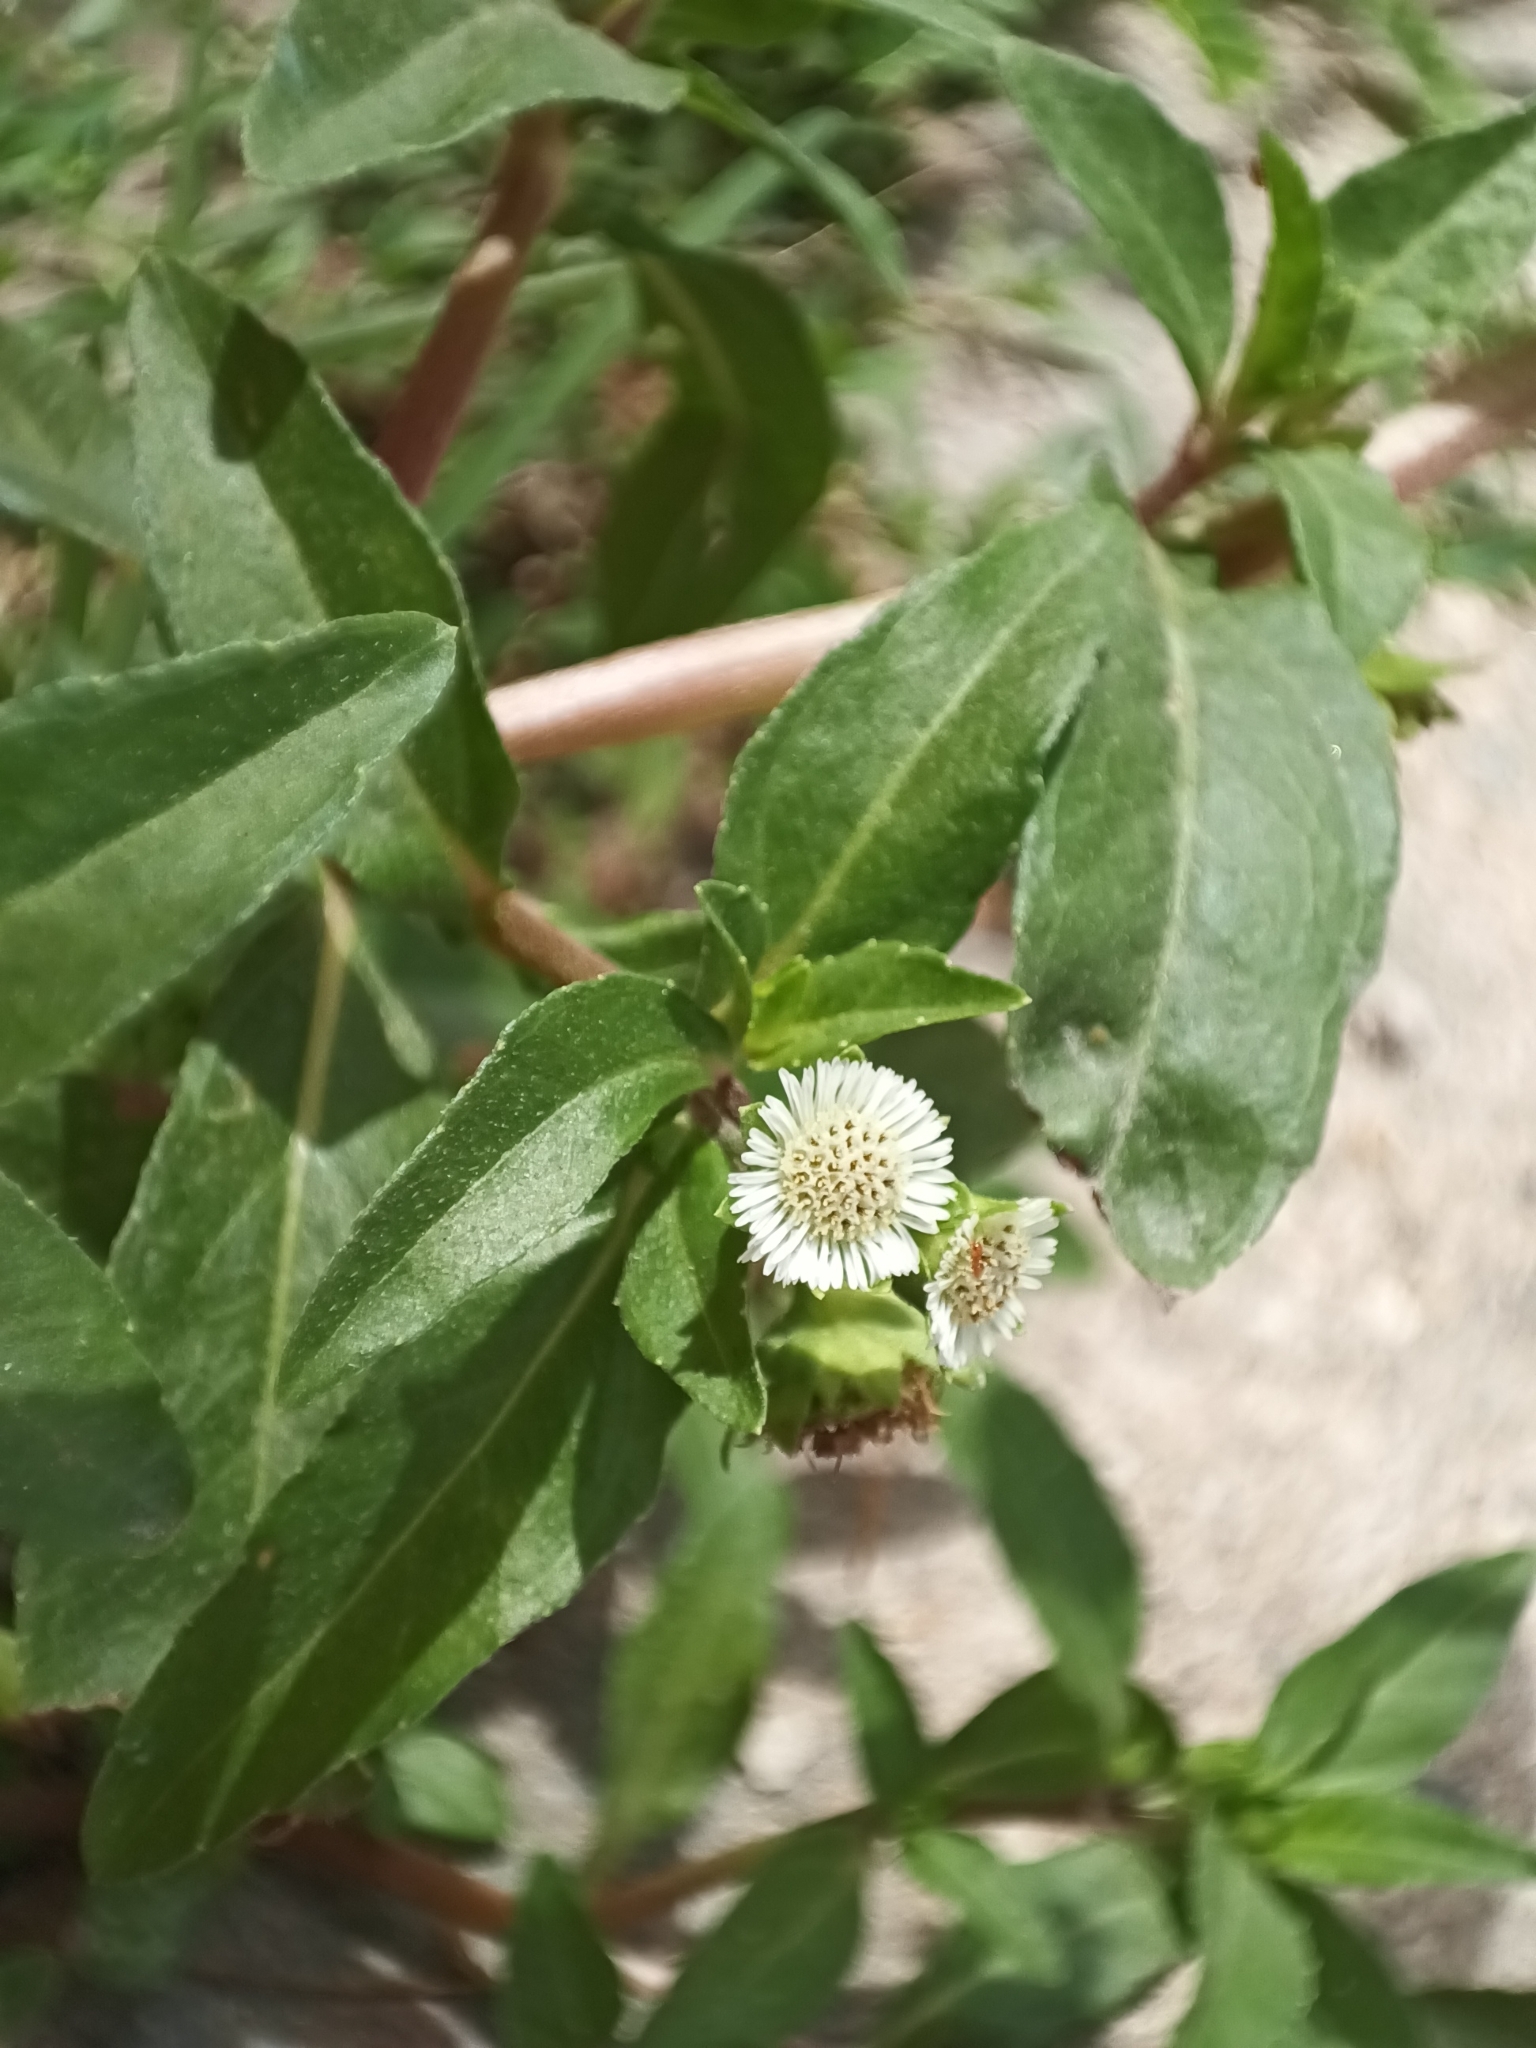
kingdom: Plantae
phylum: Tracheophyta
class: Magnoliopsida
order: Asterales
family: Asteraceae
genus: Eclipta
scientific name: Eclipta prostrata
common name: False daisy
